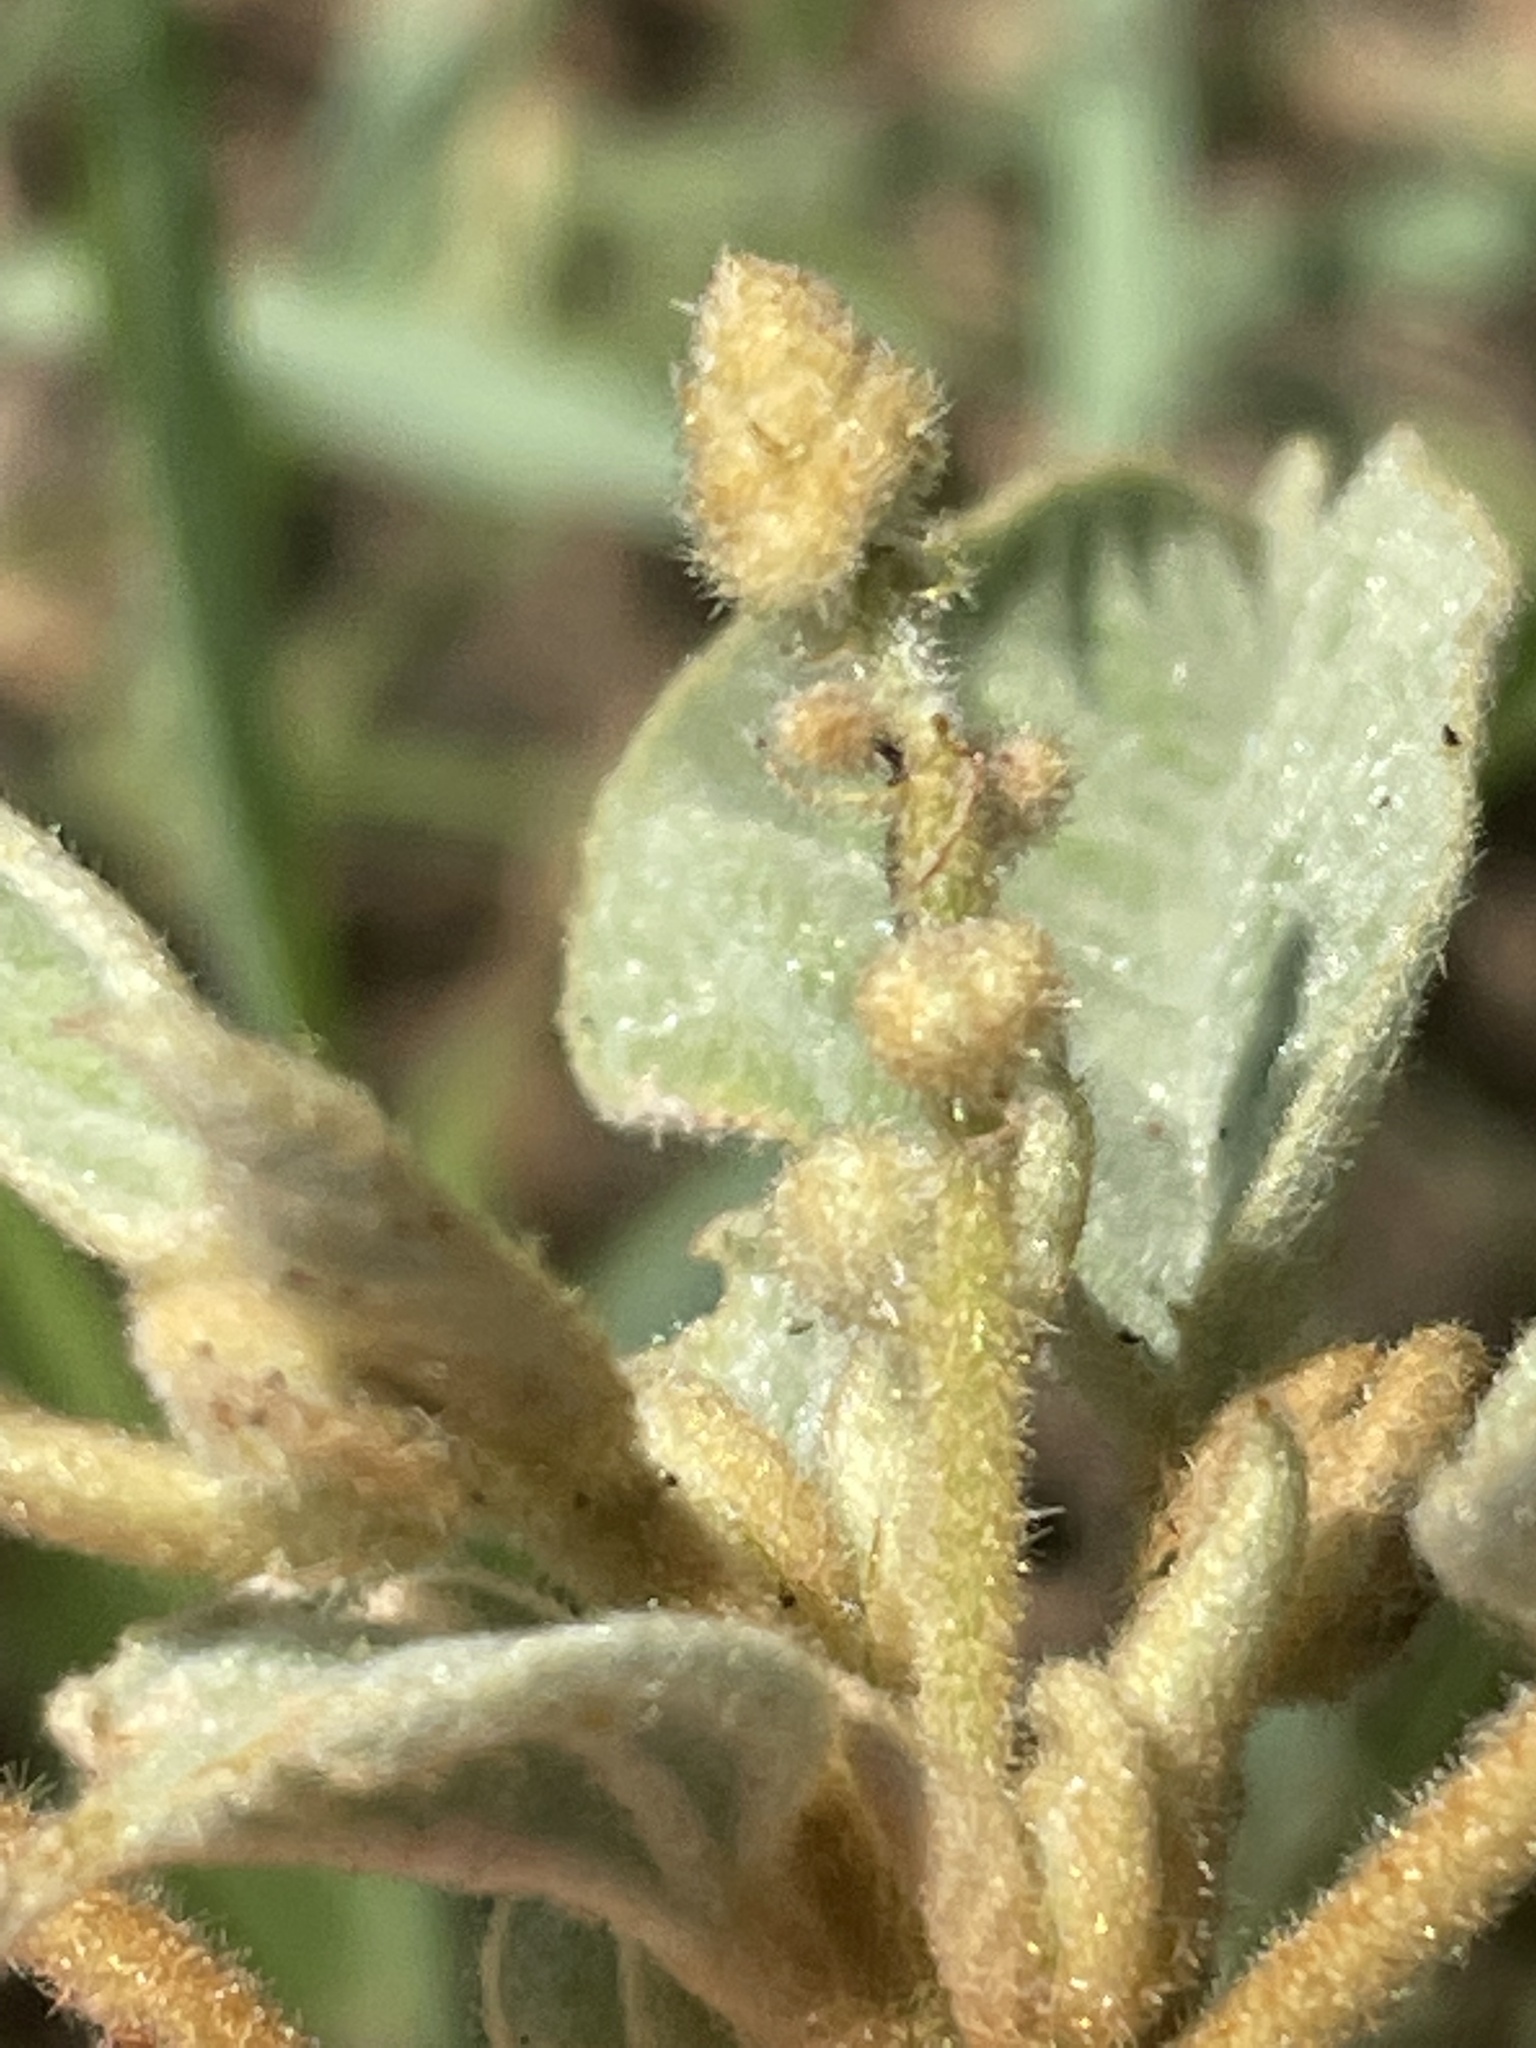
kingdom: Plantae
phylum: Tracheophyta
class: Magnoliopsida
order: Malpighiales
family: Euphorbiaceae
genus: Croton
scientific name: Croton lindheimeri
